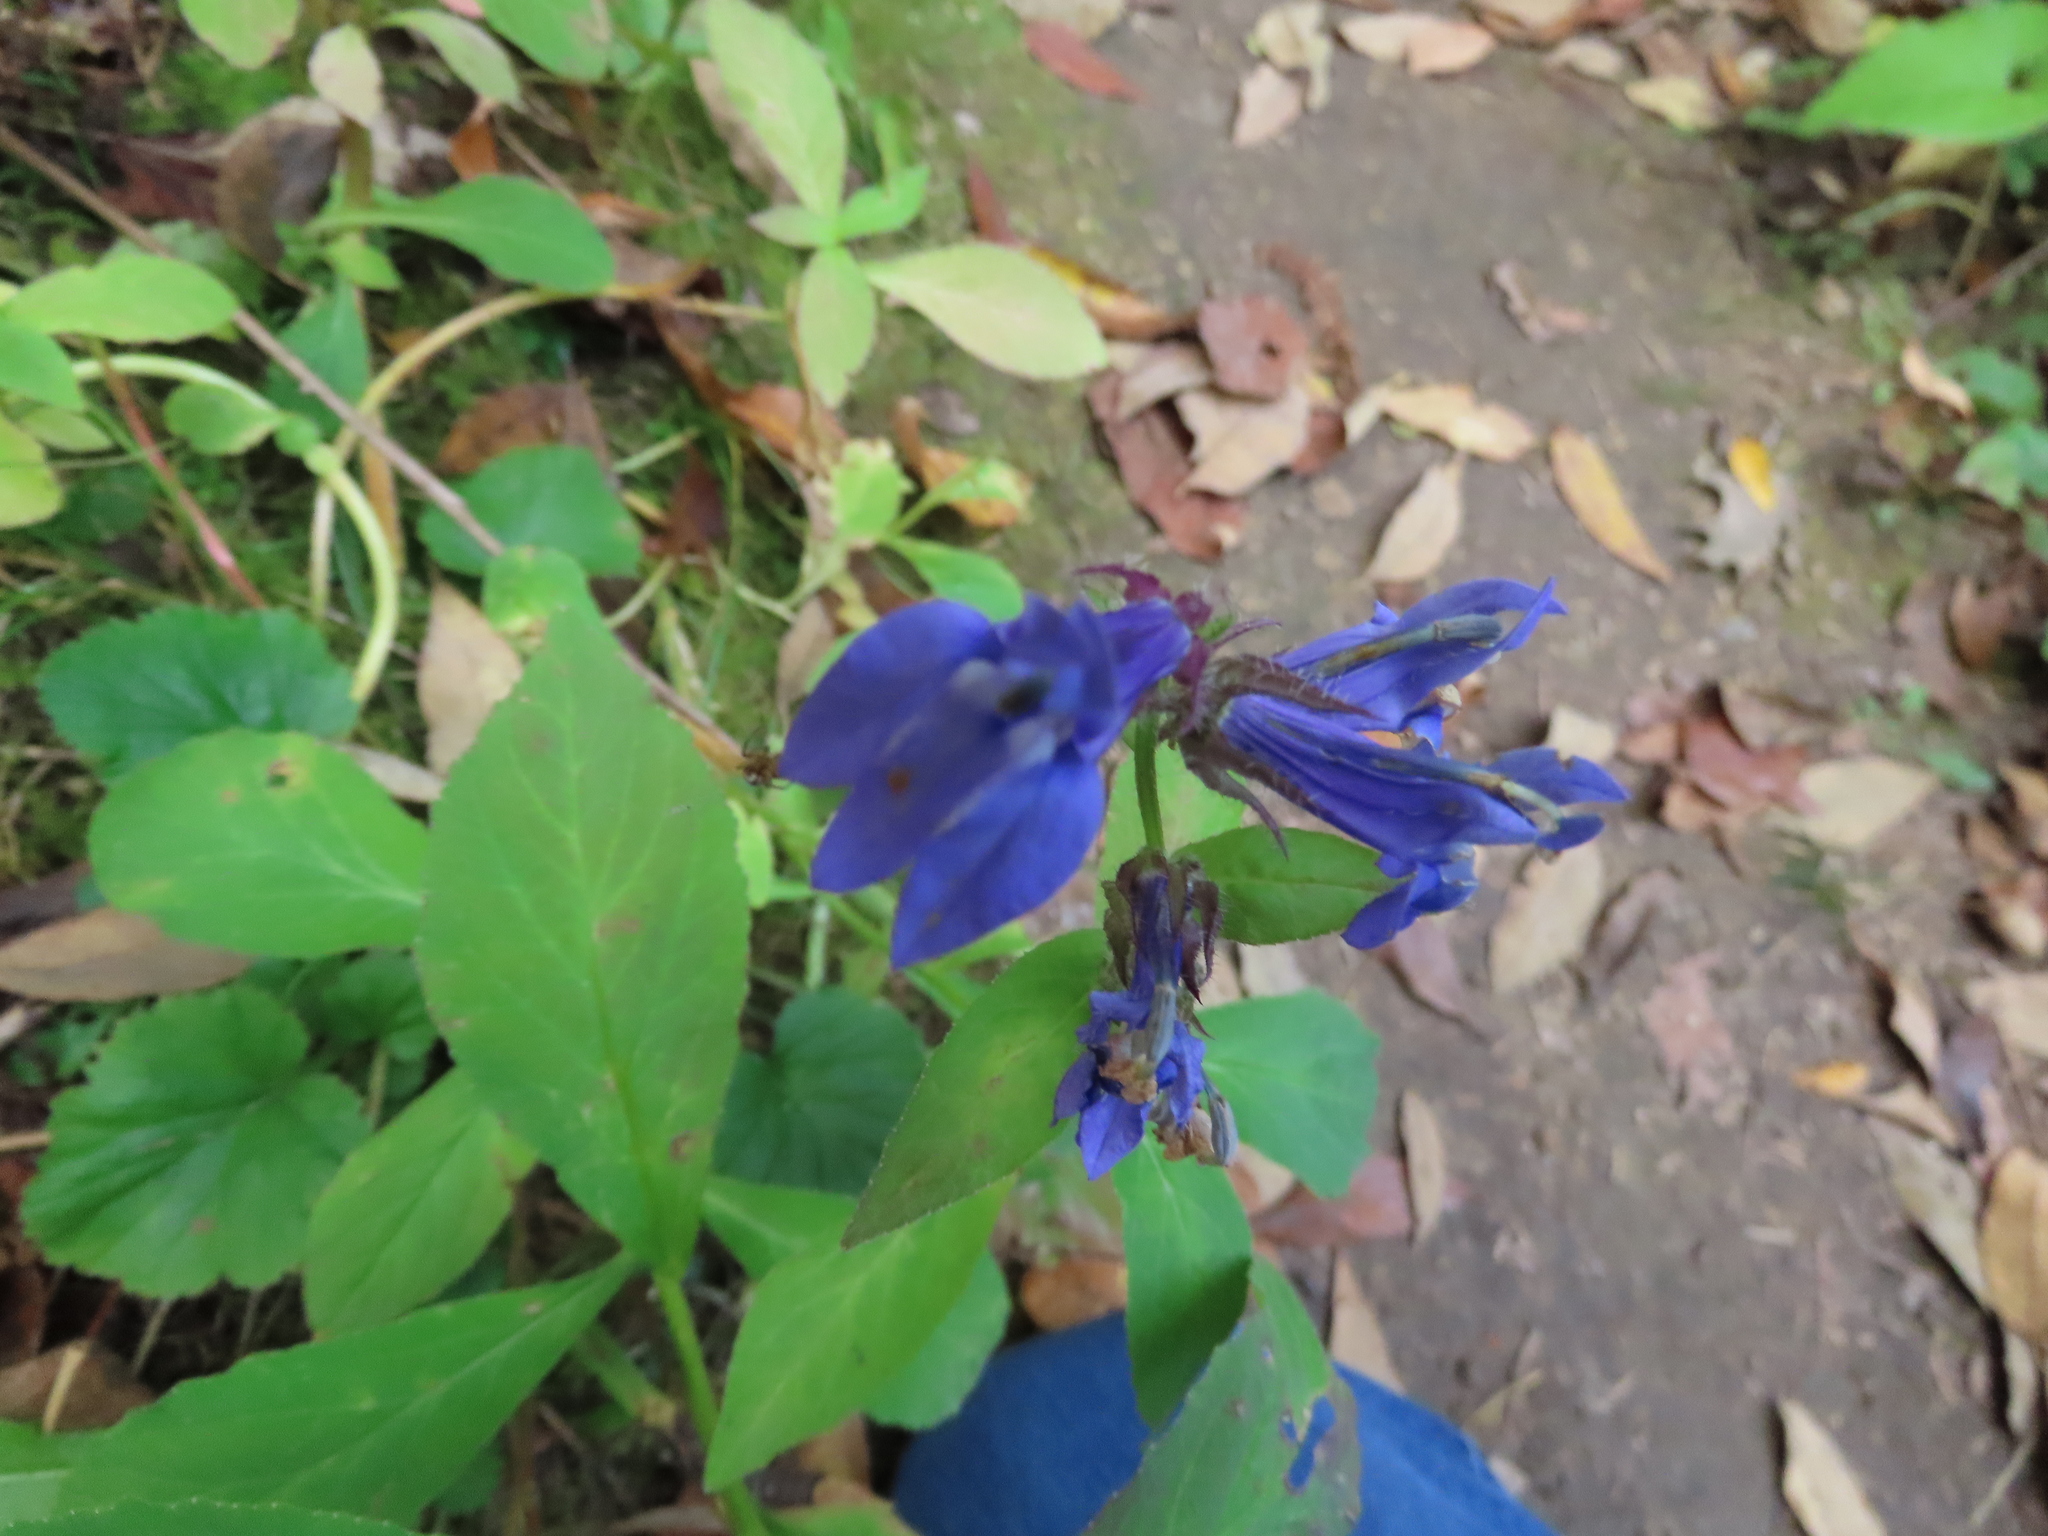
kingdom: Plantae
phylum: Tracheophyta
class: Magnoliopsida
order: Asterales
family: Campanulaceae
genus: Lobelia
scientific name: Lobelia siphilitica
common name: Great lobelia
